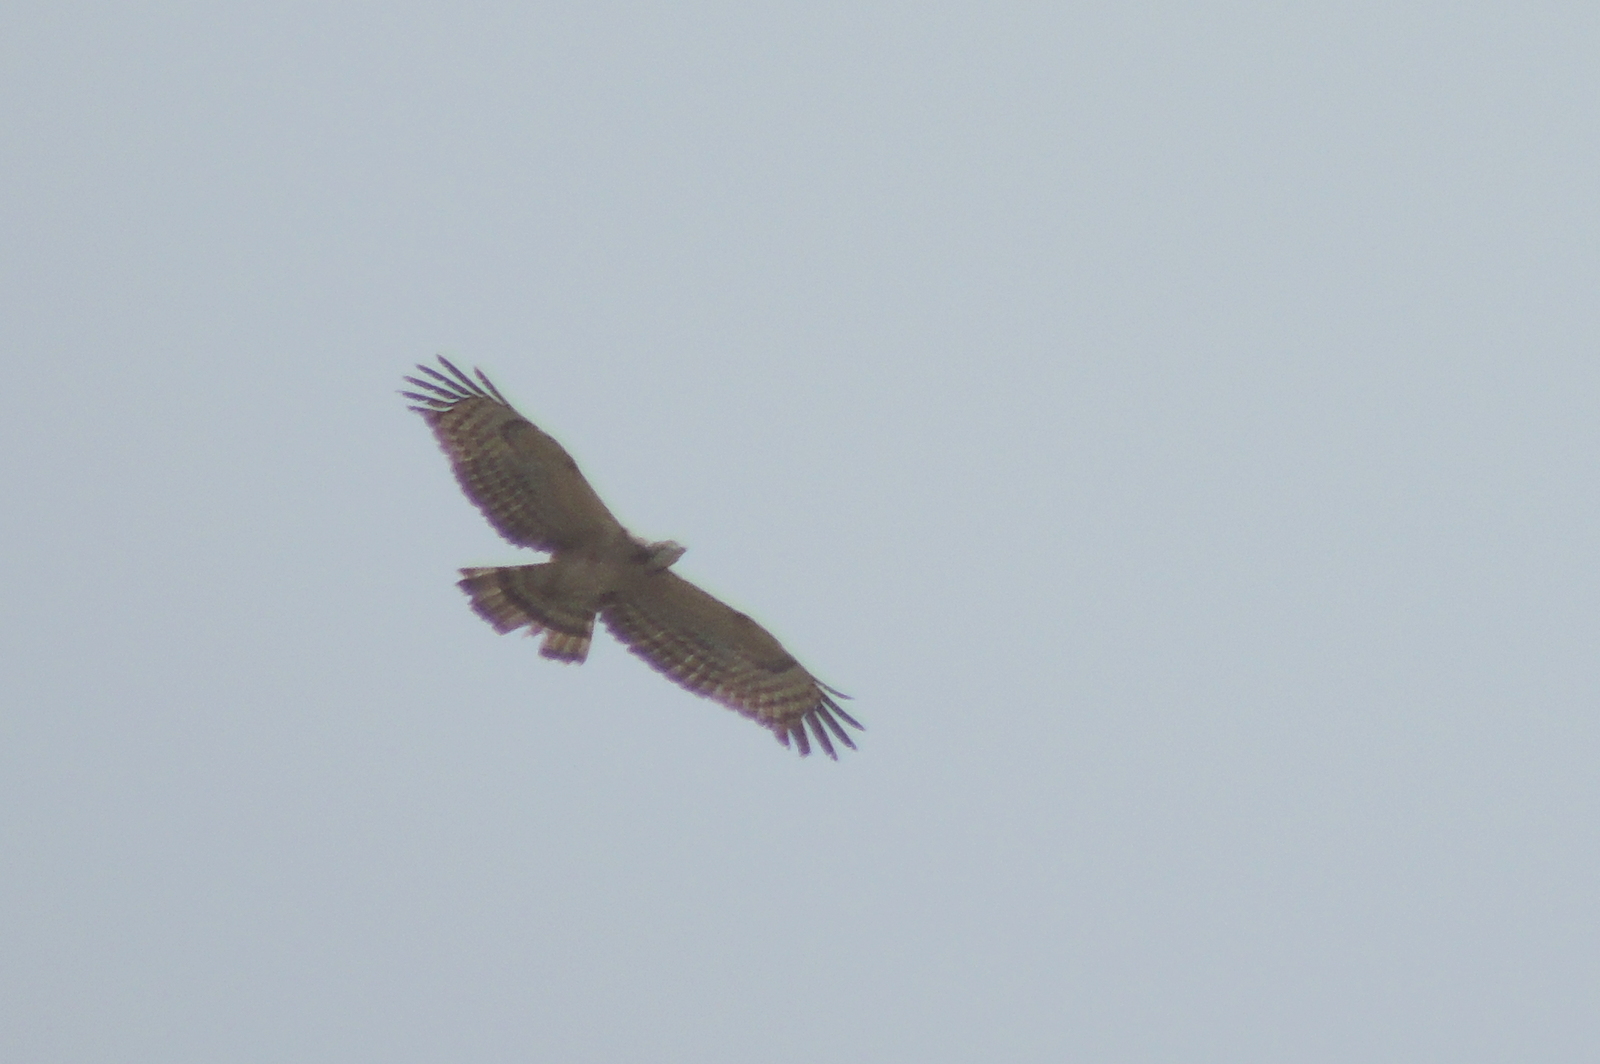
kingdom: Animalia
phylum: Chordata
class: Aves
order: Accipitriformes
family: Accipitridae
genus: Pernis
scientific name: Pernis ptilorhynchus
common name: Crested honey buzzard
